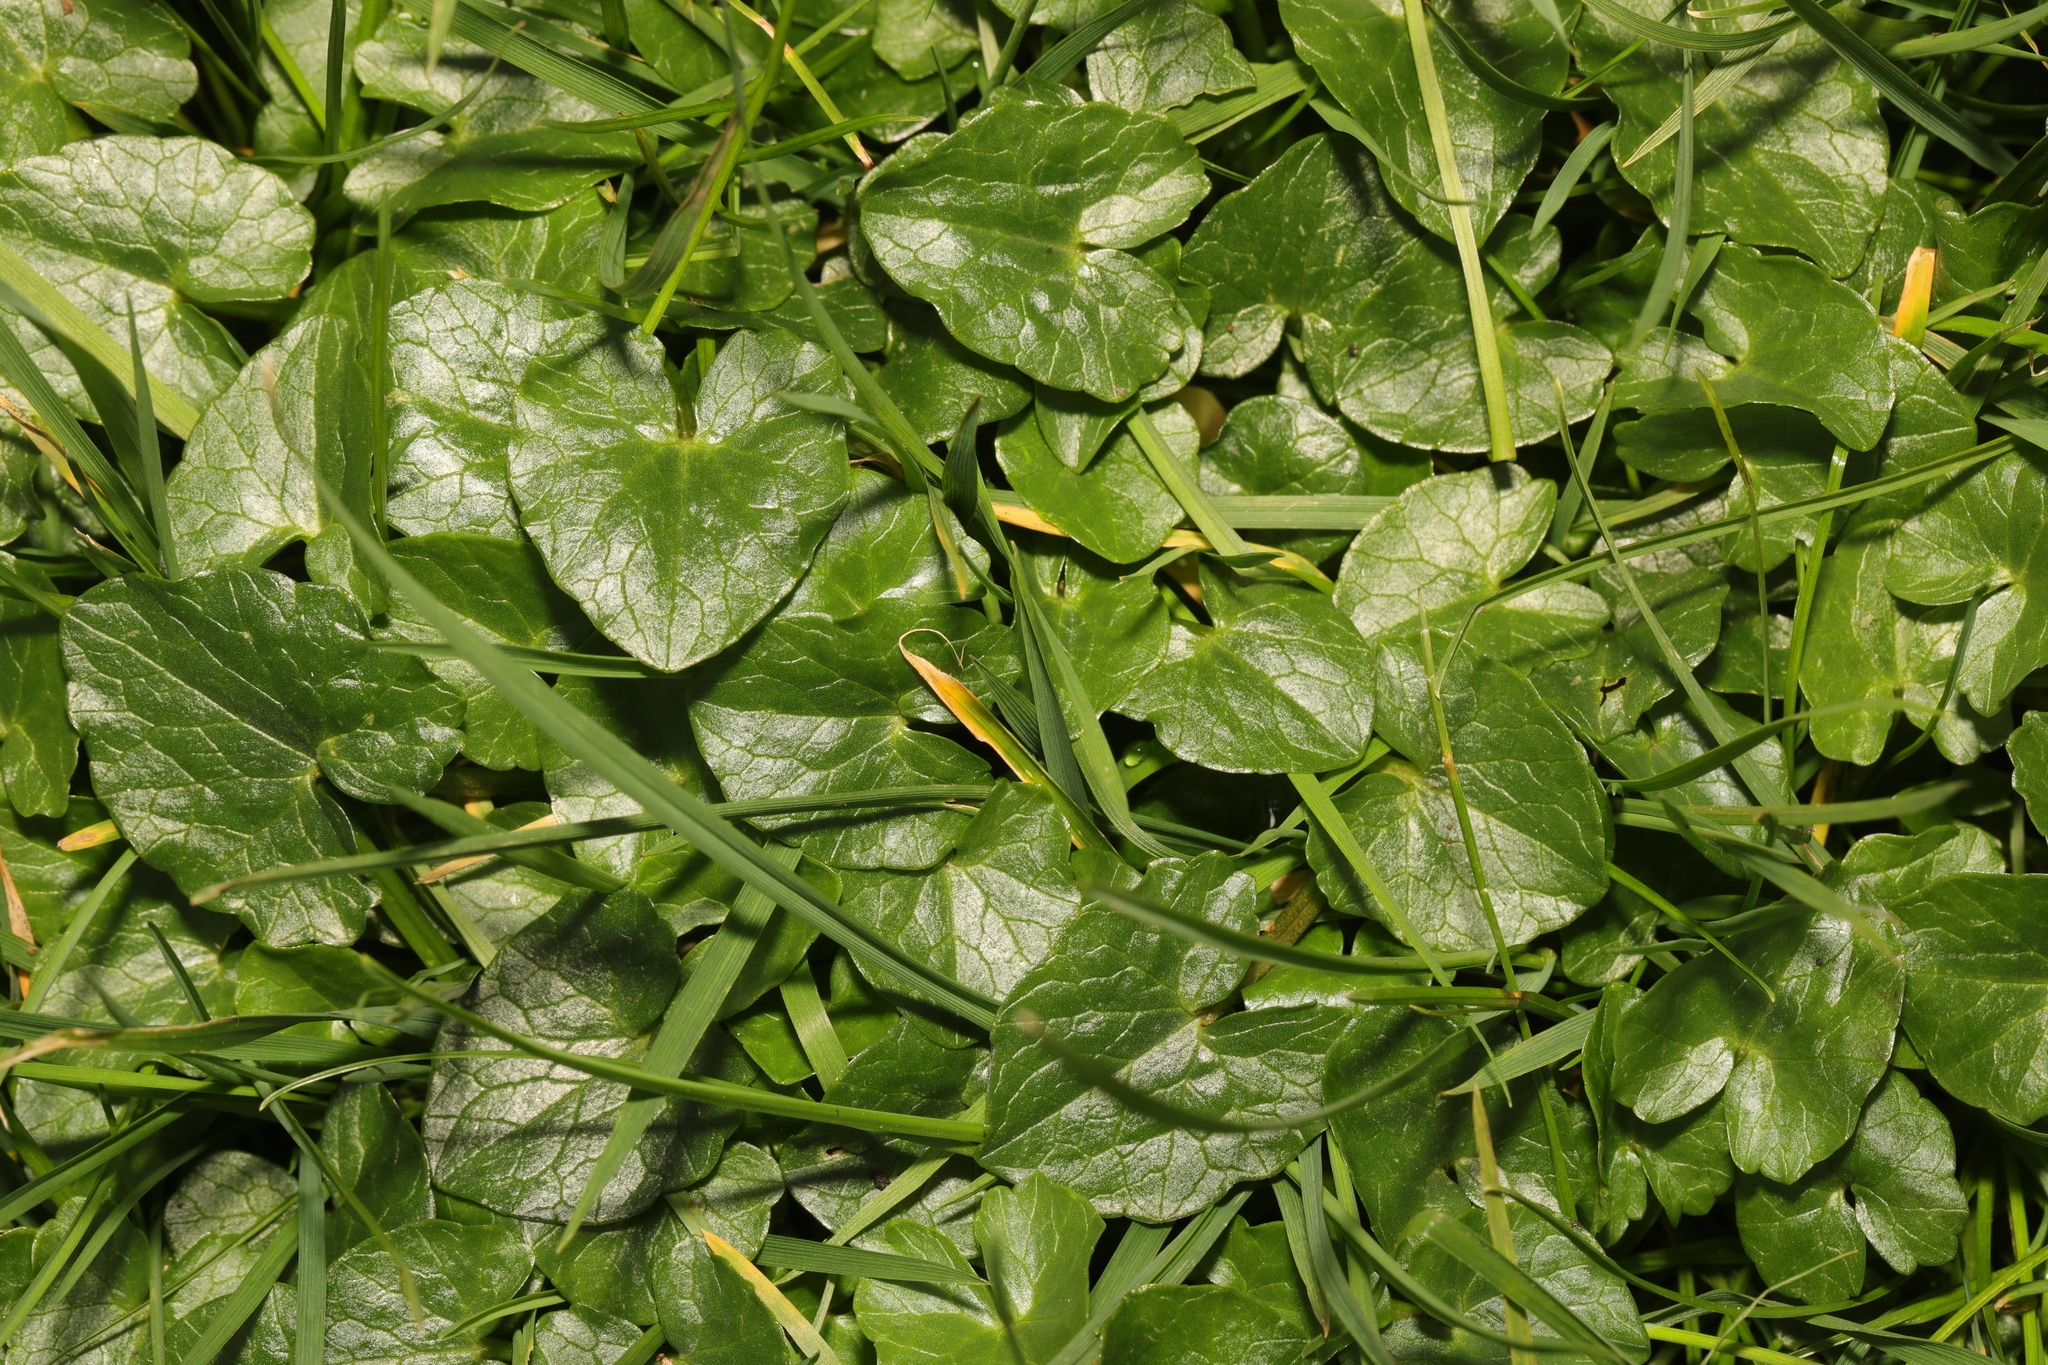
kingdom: Plantae
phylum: Tracheophyta
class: Magnoliopsida
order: Ranunculales
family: Ranunculaceae
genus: Ficaria
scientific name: Ficaria verna
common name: Lesser celandine
